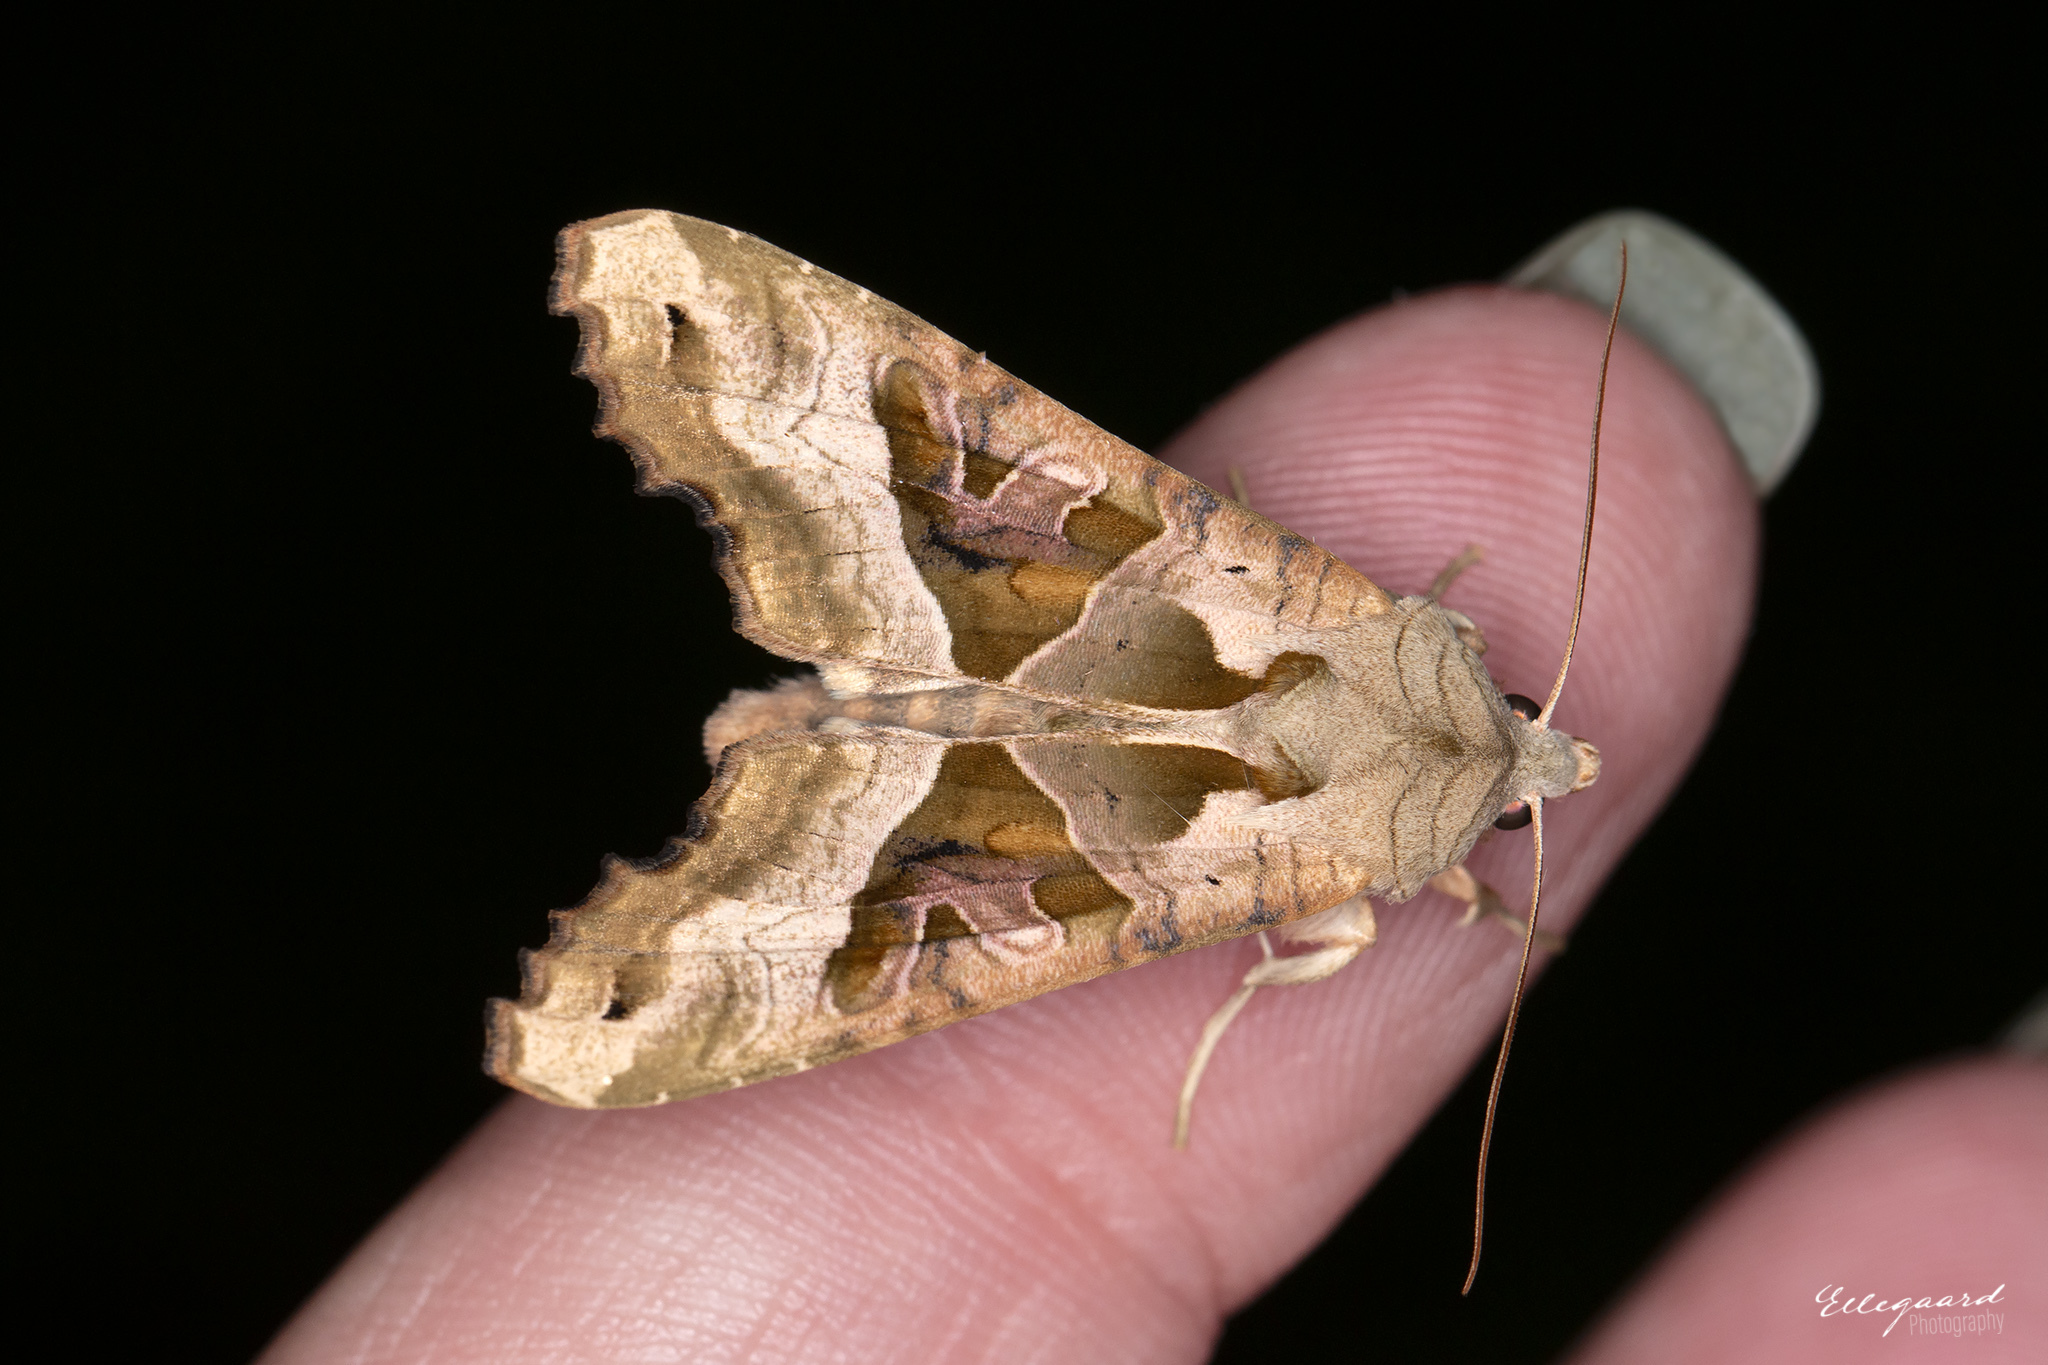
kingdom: Animalia
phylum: Arthropoda
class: Insecta
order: Lepidoptera
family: Noctuidae
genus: Phlogophora
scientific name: Phlogophora meticulosa
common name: Angle shades
